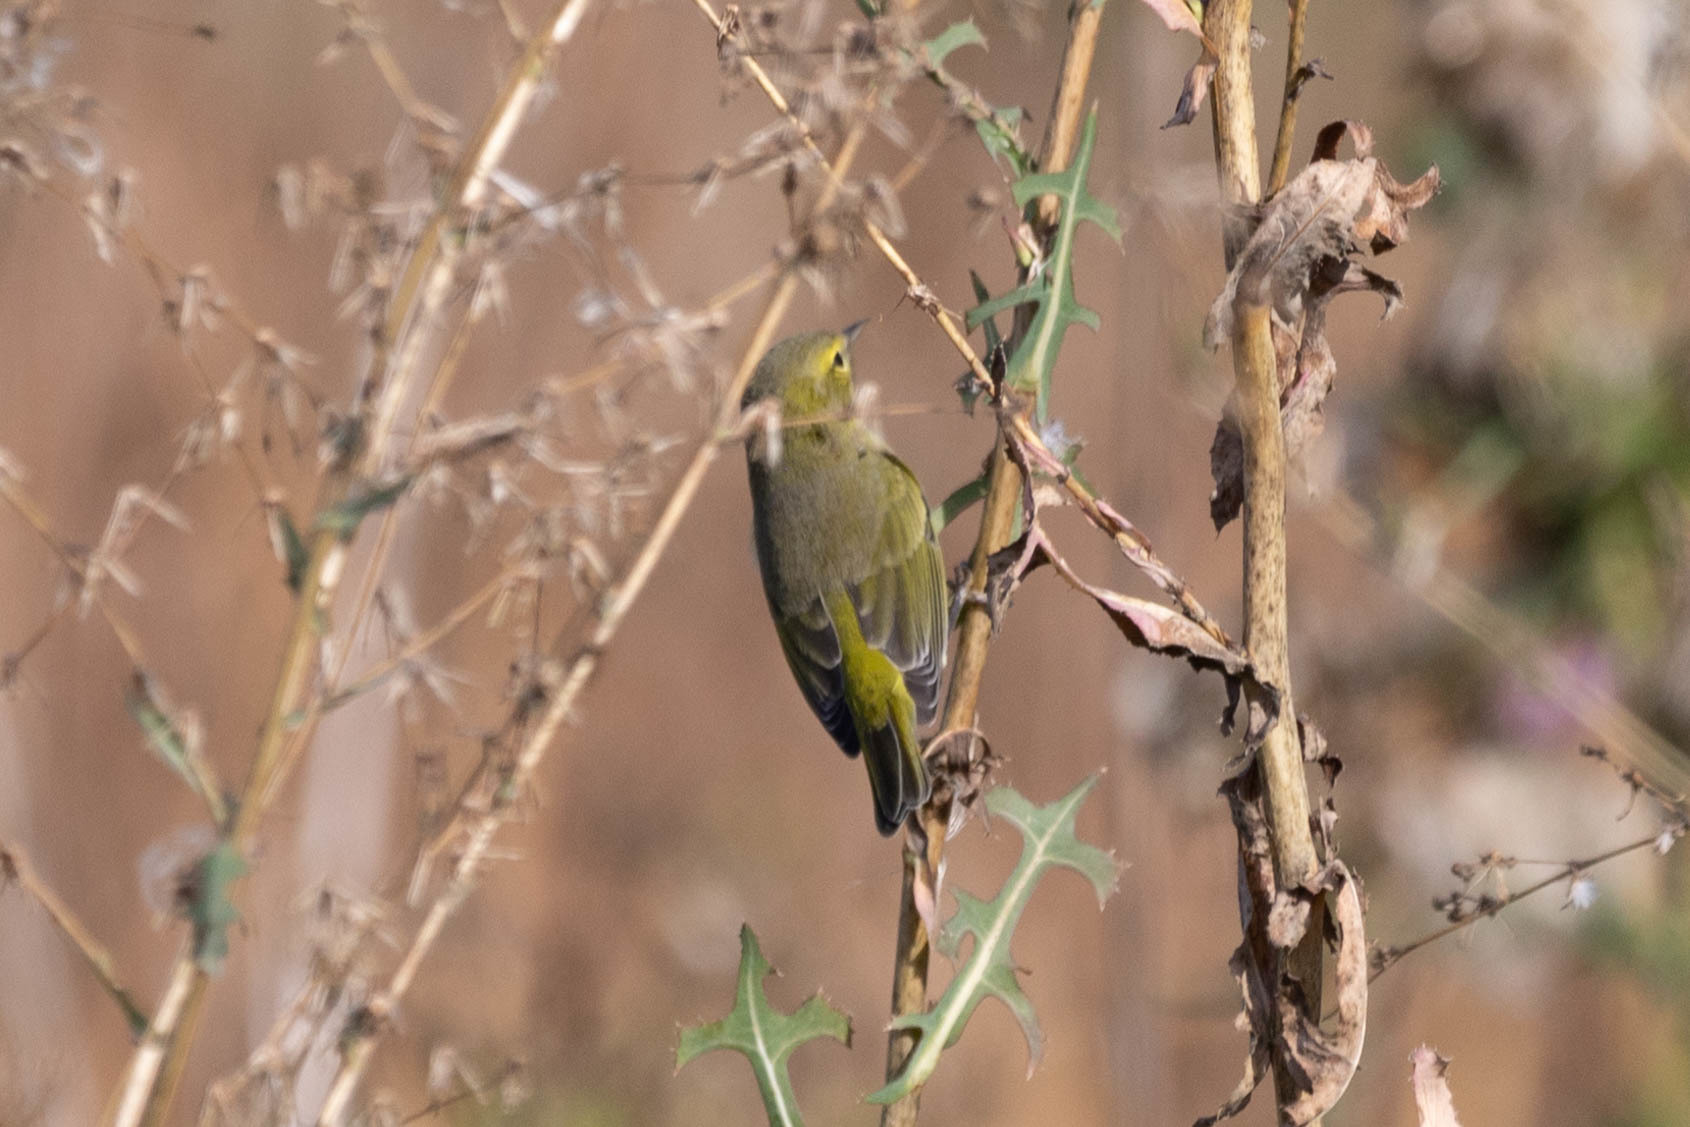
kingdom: Animalia
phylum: Chordata
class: Aves
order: Passeriformes
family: Parulidae
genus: Leiothlypis
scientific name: Leiothlypis celata
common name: Orange-crowned warbler
